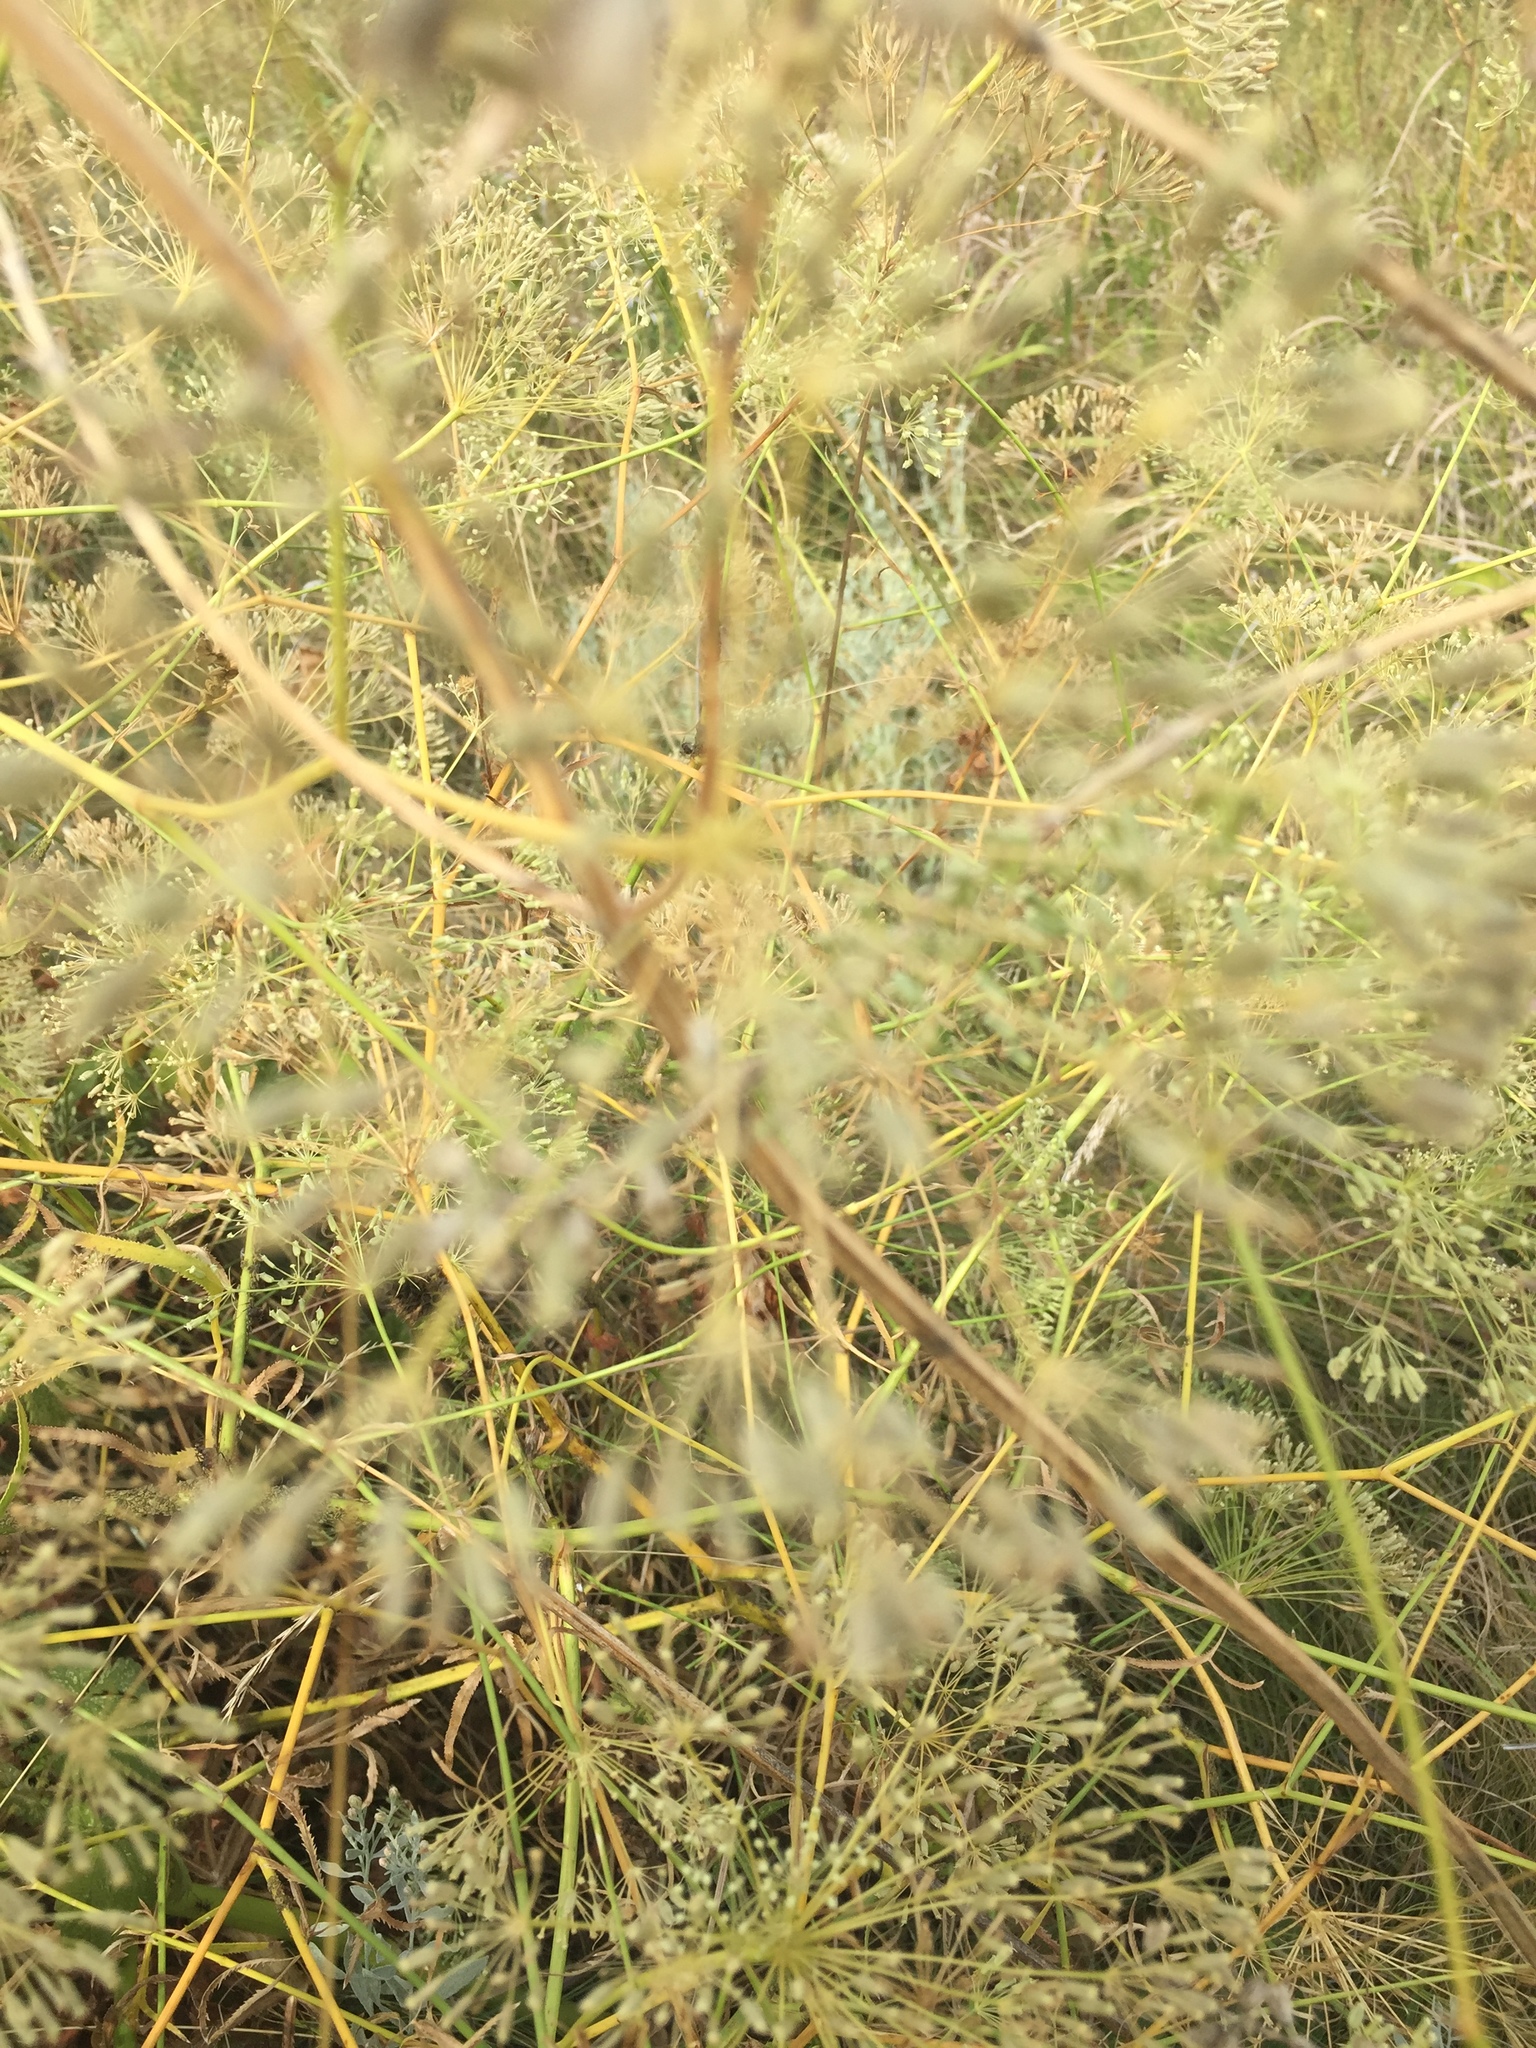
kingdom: Plantae
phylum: Tracheophyta
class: Magnoliopsida
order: Apiales
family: Apiaceae
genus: Falcaria
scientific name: Falcaria vulgaris
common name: Longleaf
